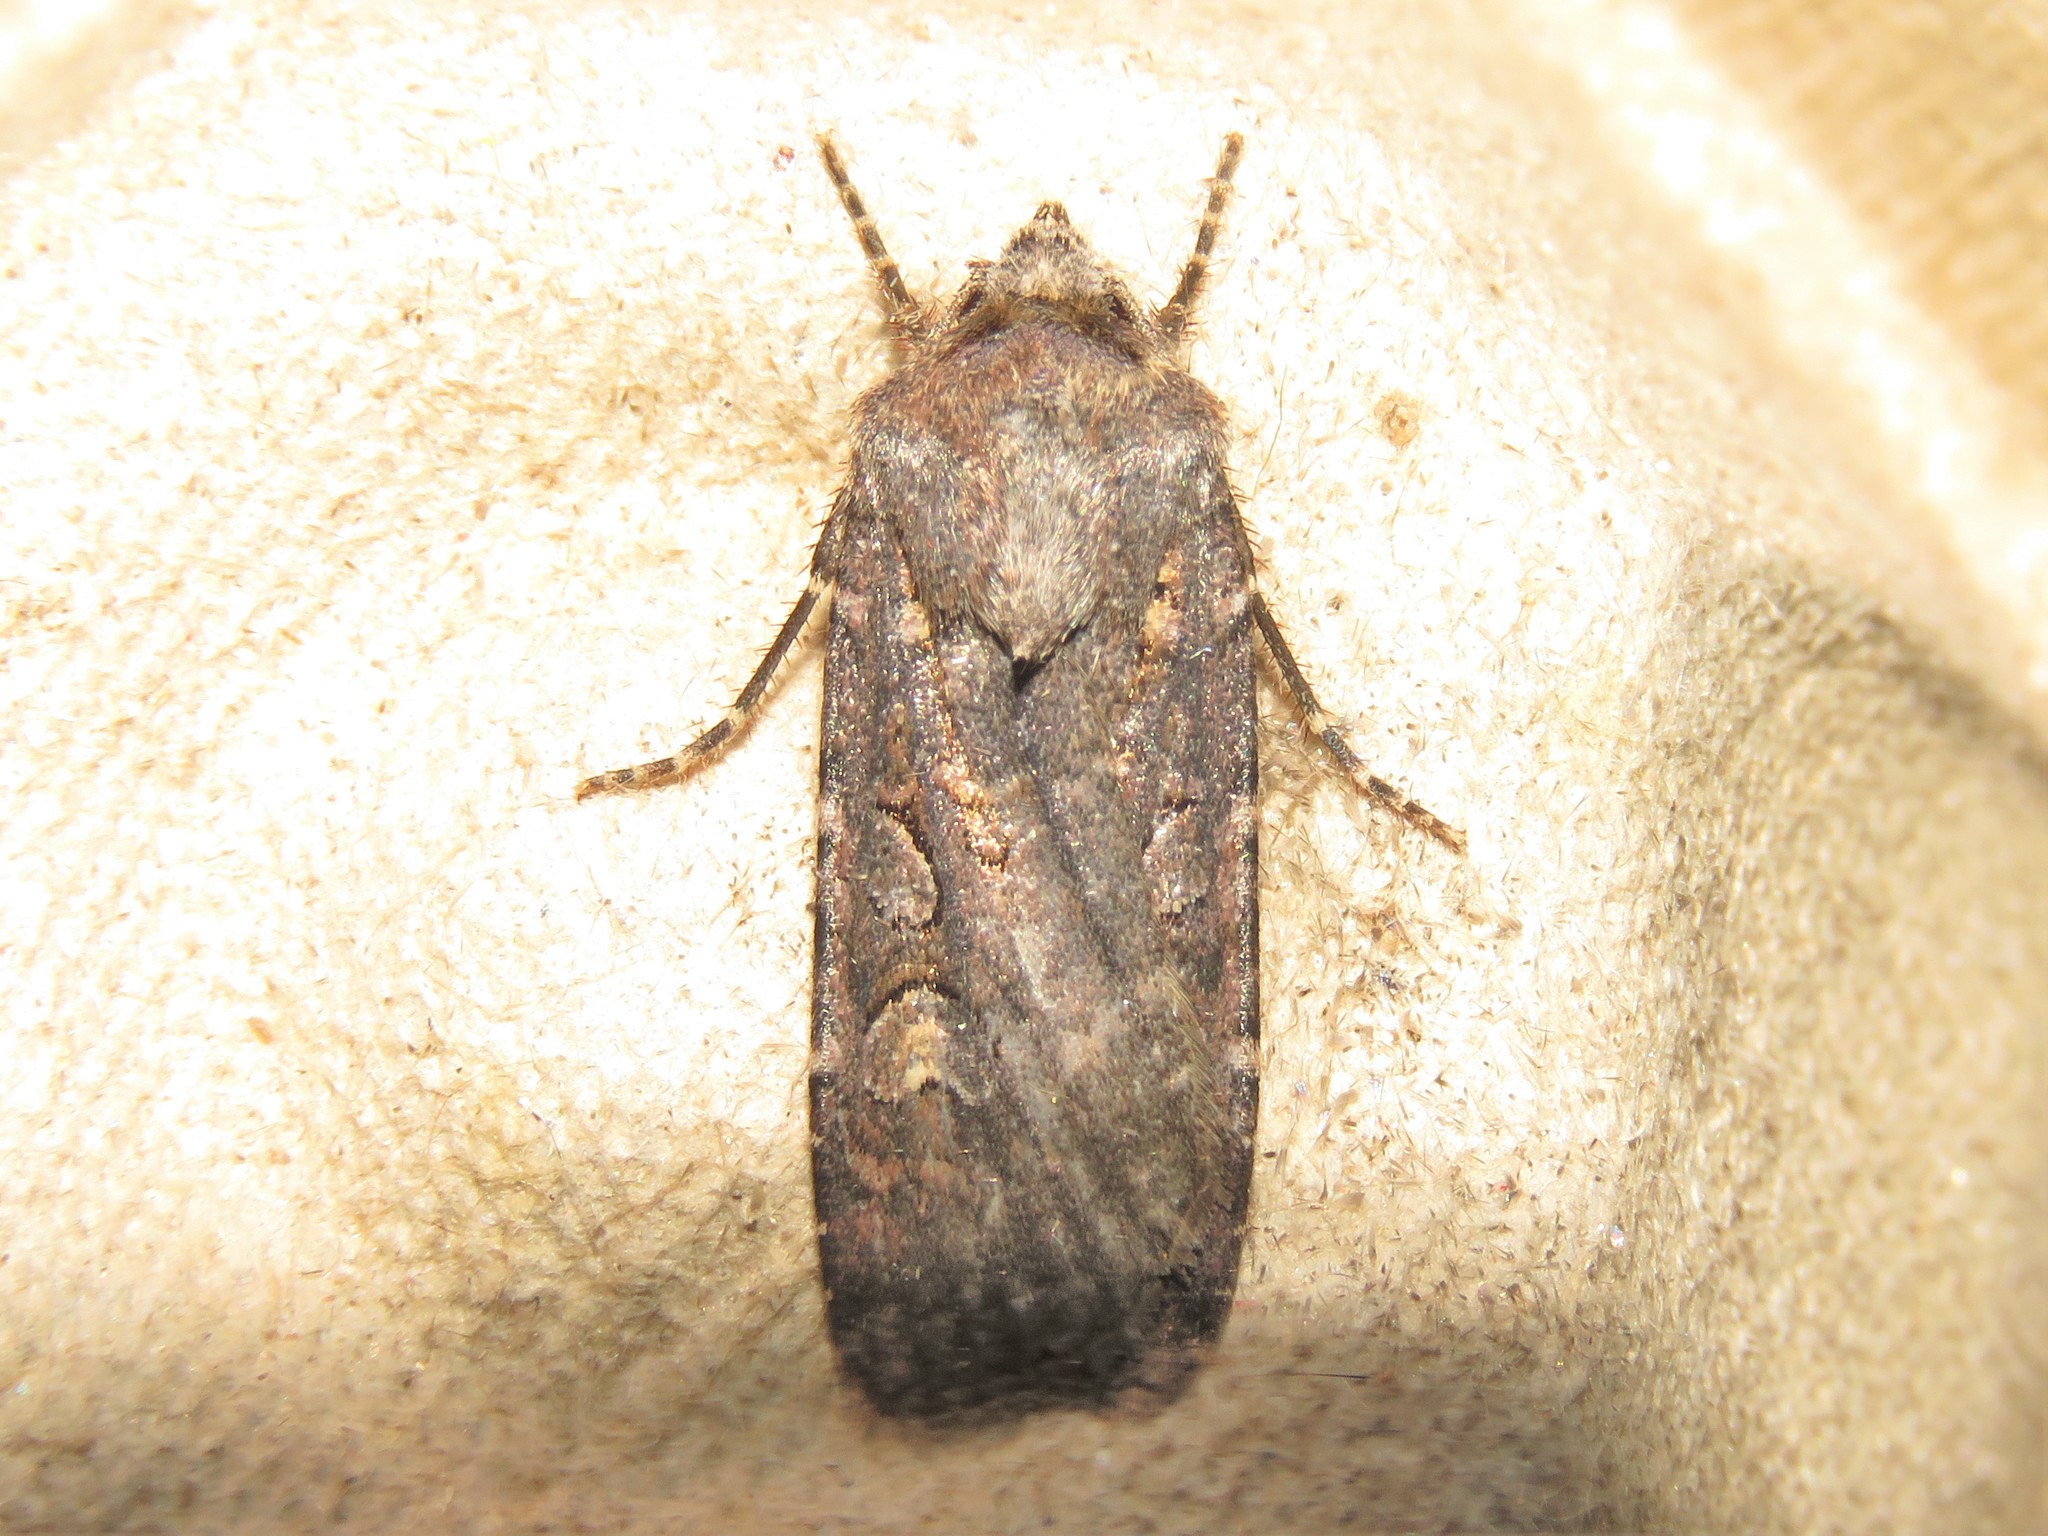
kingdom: Animalia
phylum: Arthropoda
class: Insecta
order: Lepidoptera
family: Noctuidae
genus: Euxoa
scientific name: Euxoa tessellata
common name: Striped cutworm
